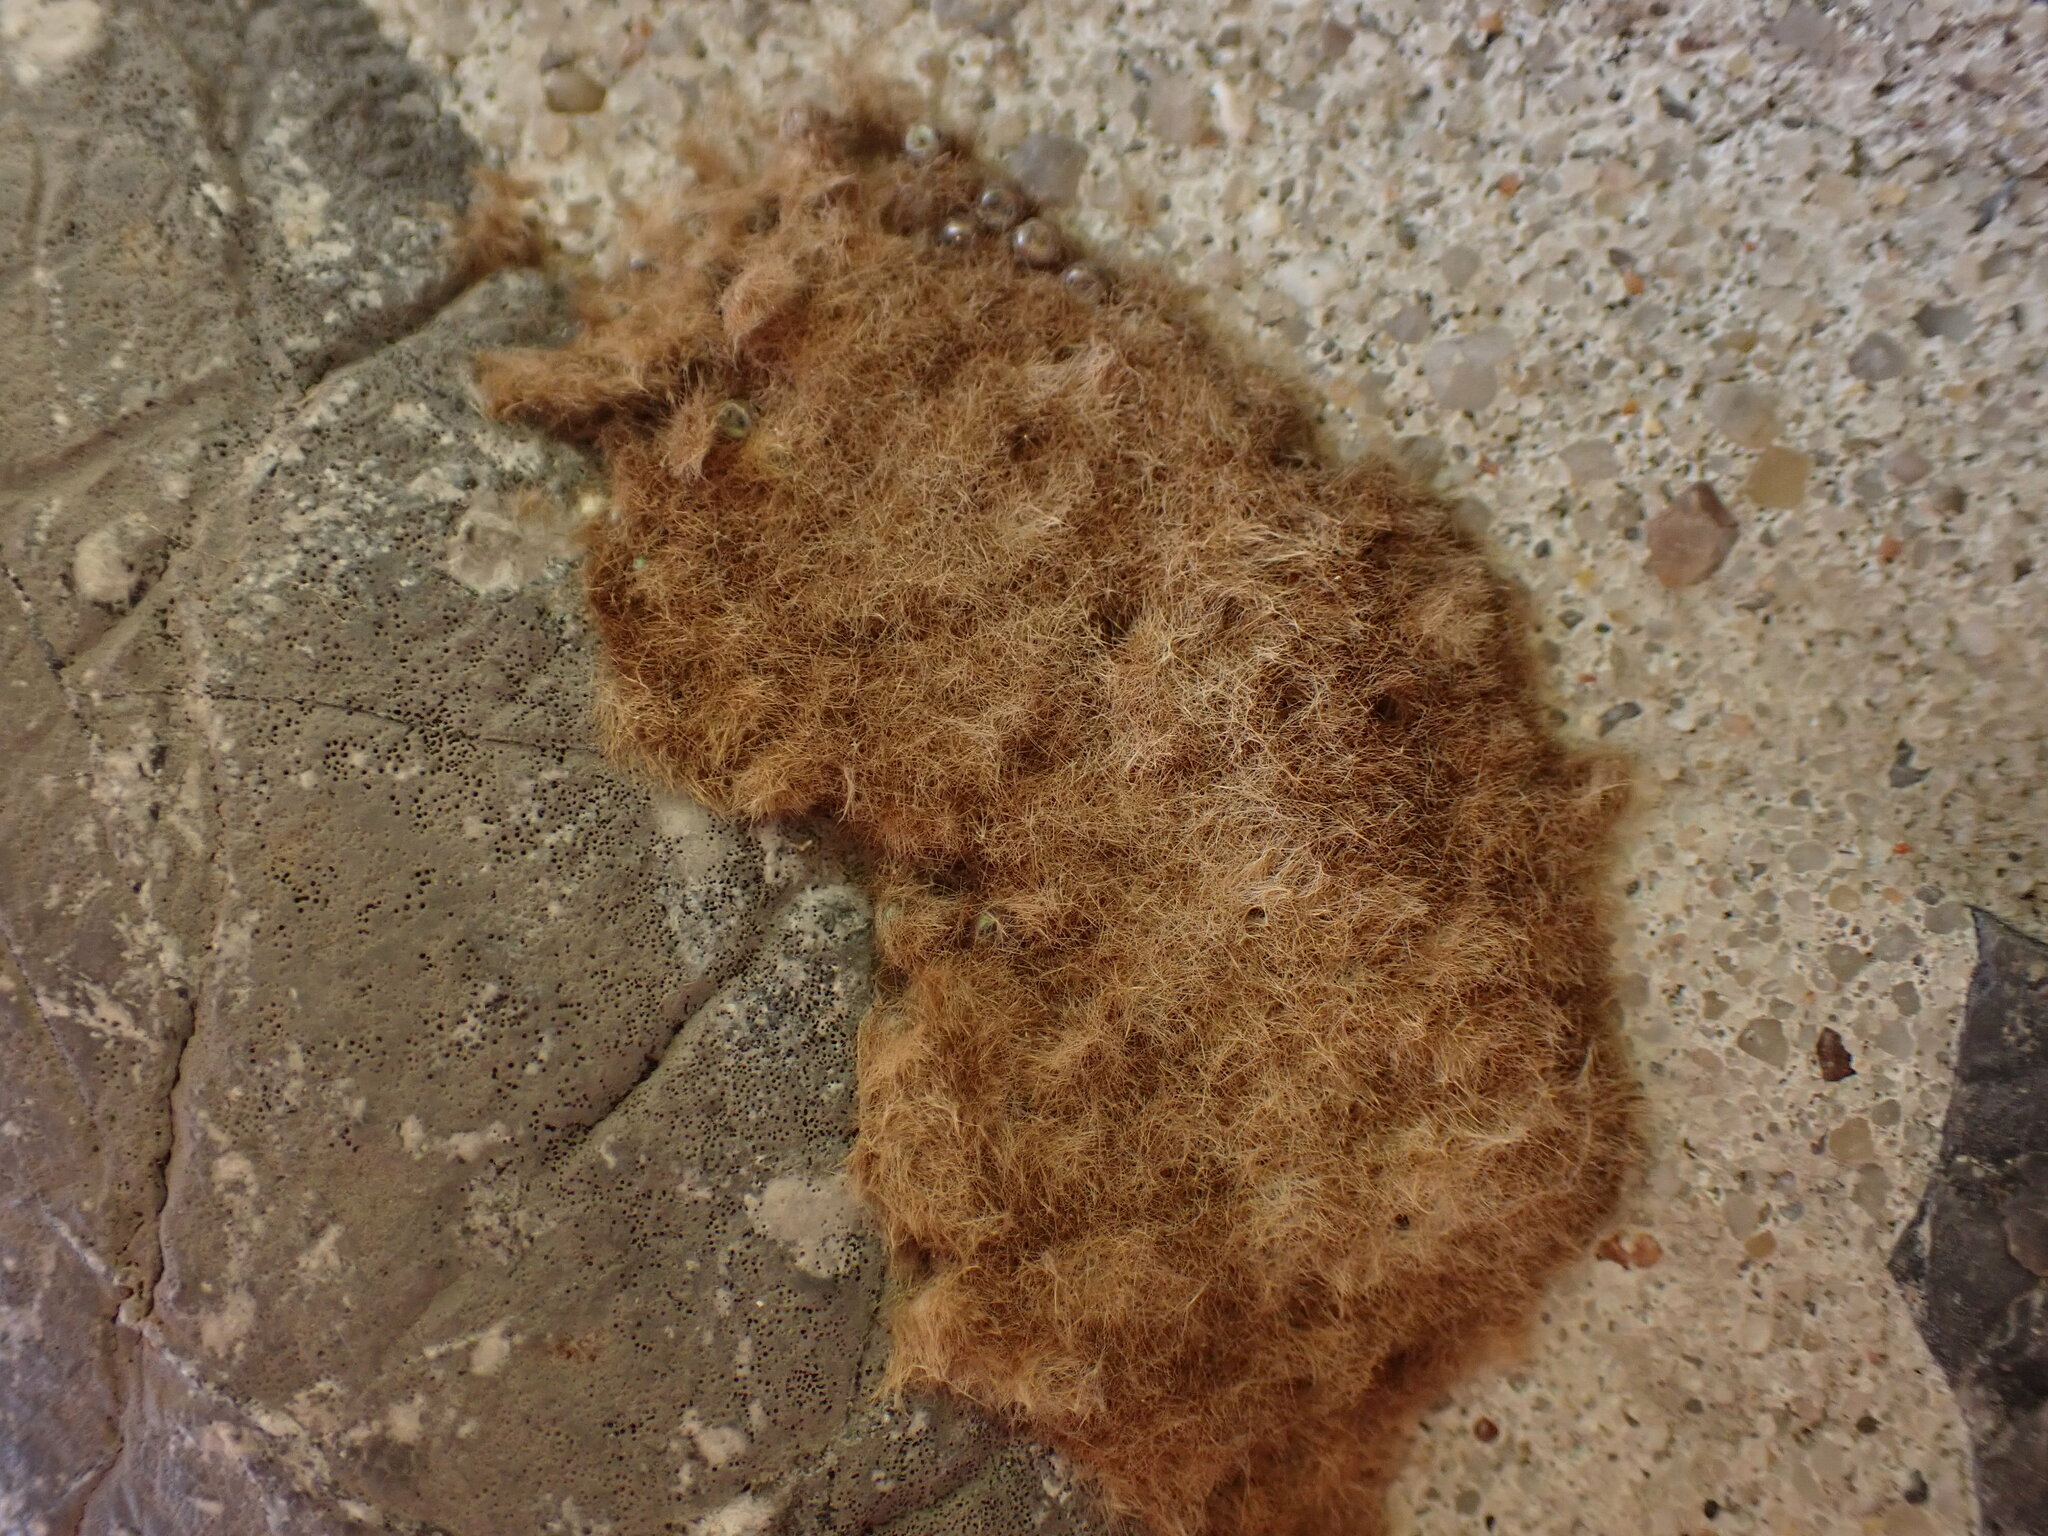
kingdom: Animalia
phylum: Arthropoda
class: Insecta
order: Lepidoptera
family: Erebidae
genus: Lymantria
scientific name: Lymantria dispar
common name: Gypsy moth
